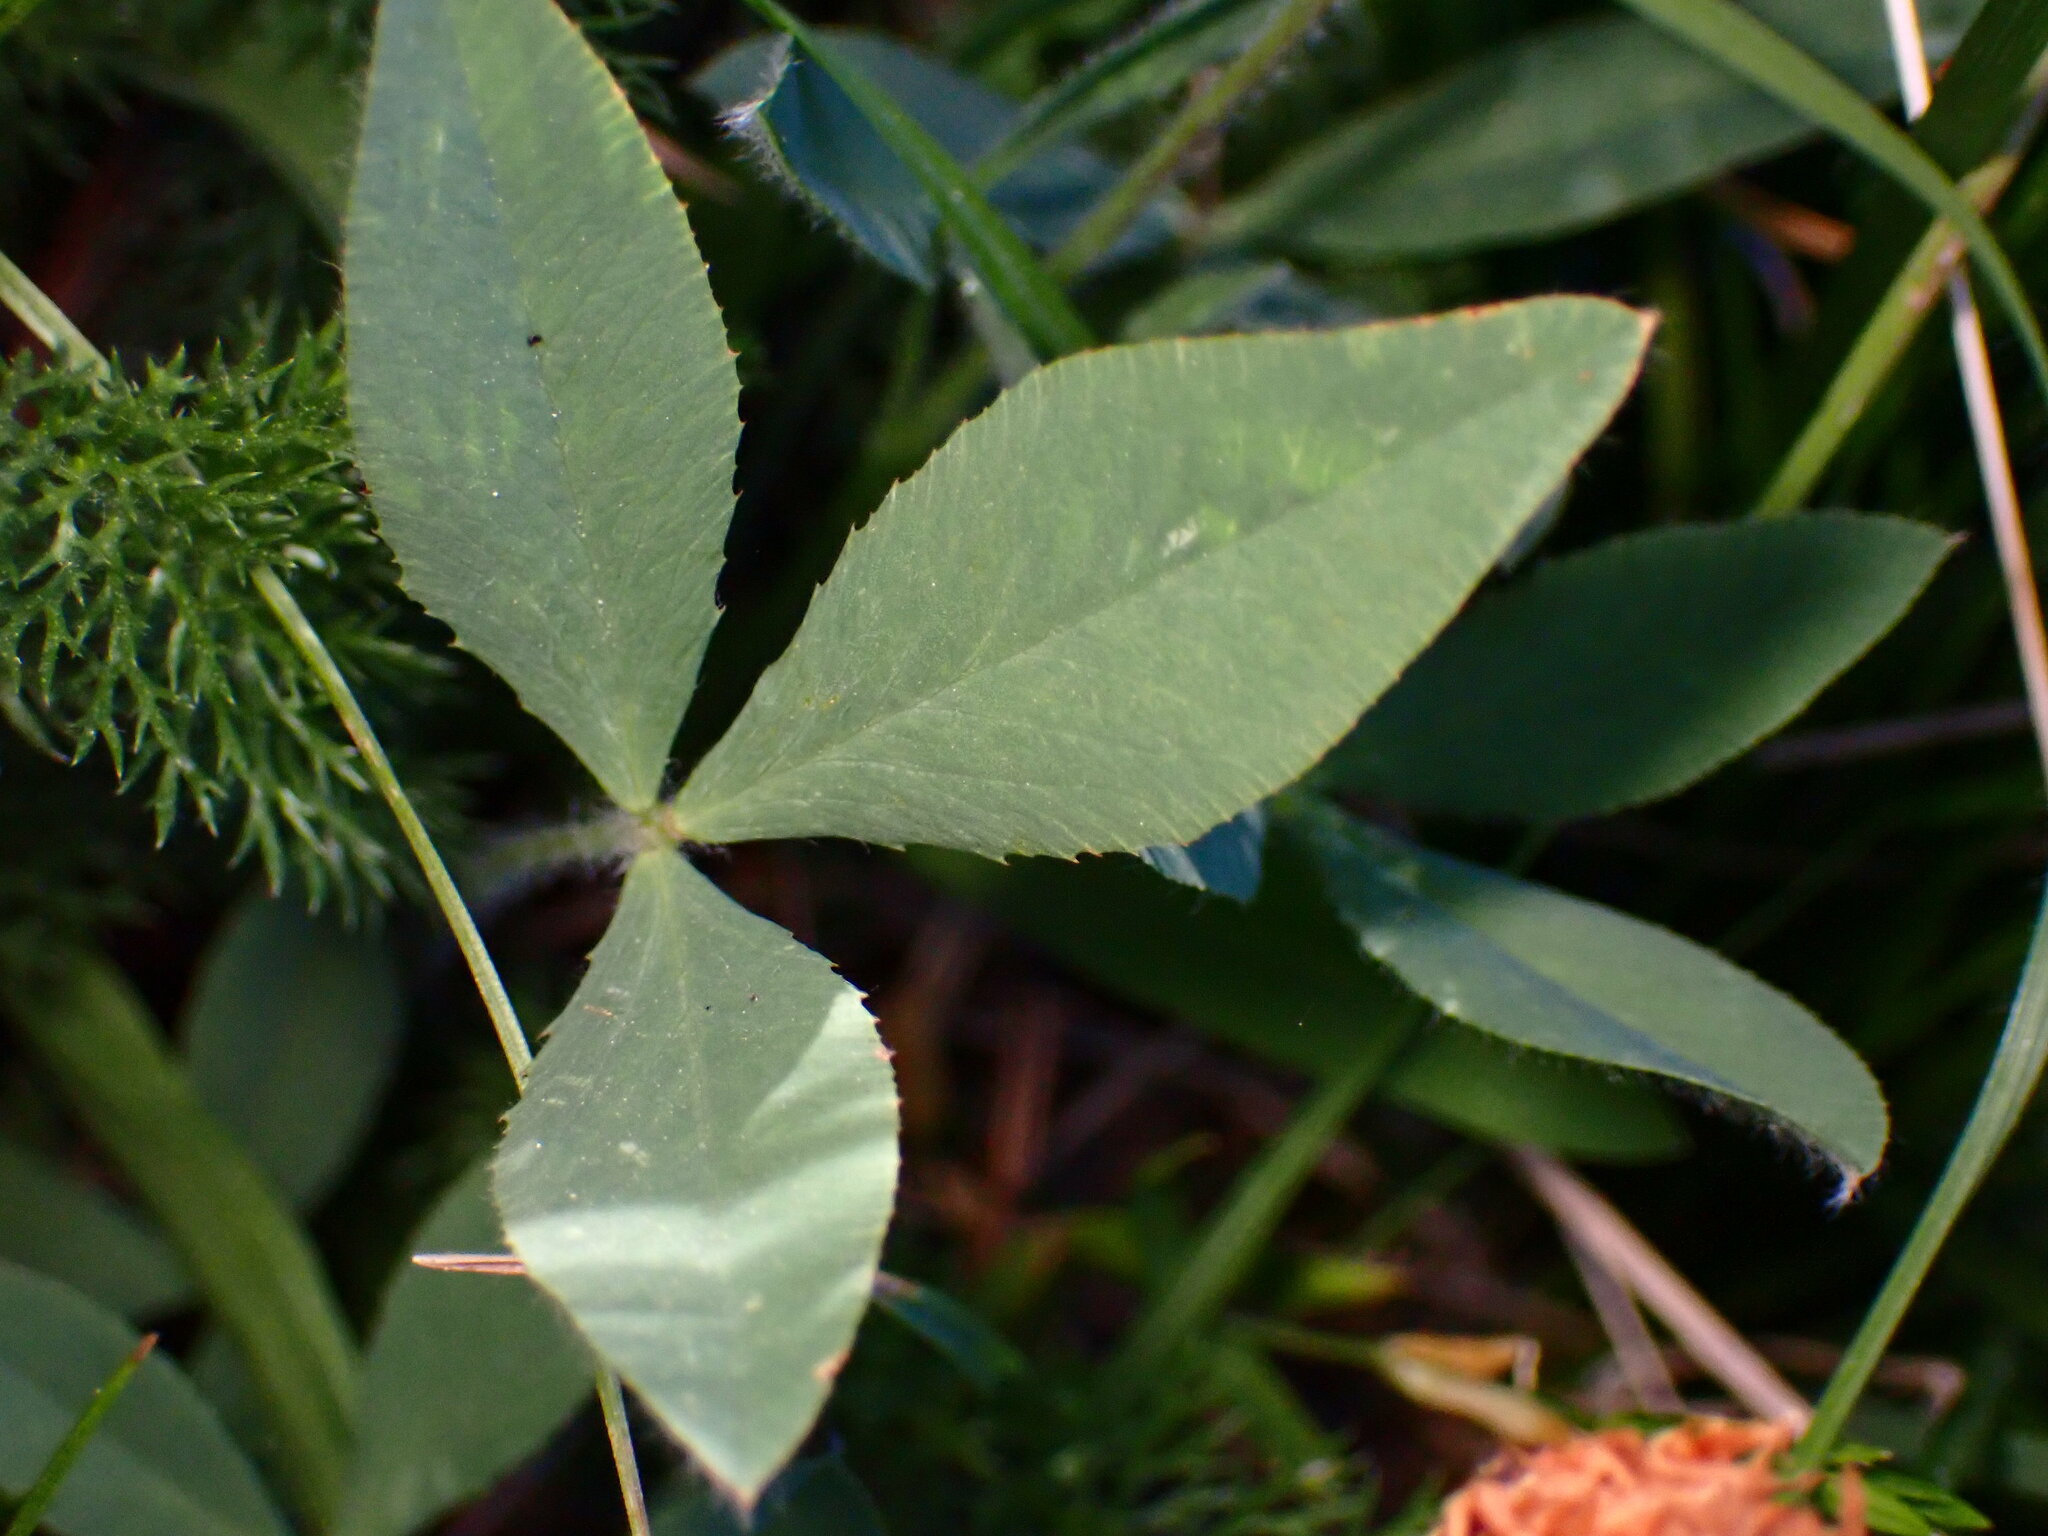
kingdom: Plantae
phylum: Tracheophyta
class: Magnoliopsida
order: Fabales
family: Fabaceae
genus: Trifolium
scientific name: Trifolium longipes
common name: Long-stalk clover
